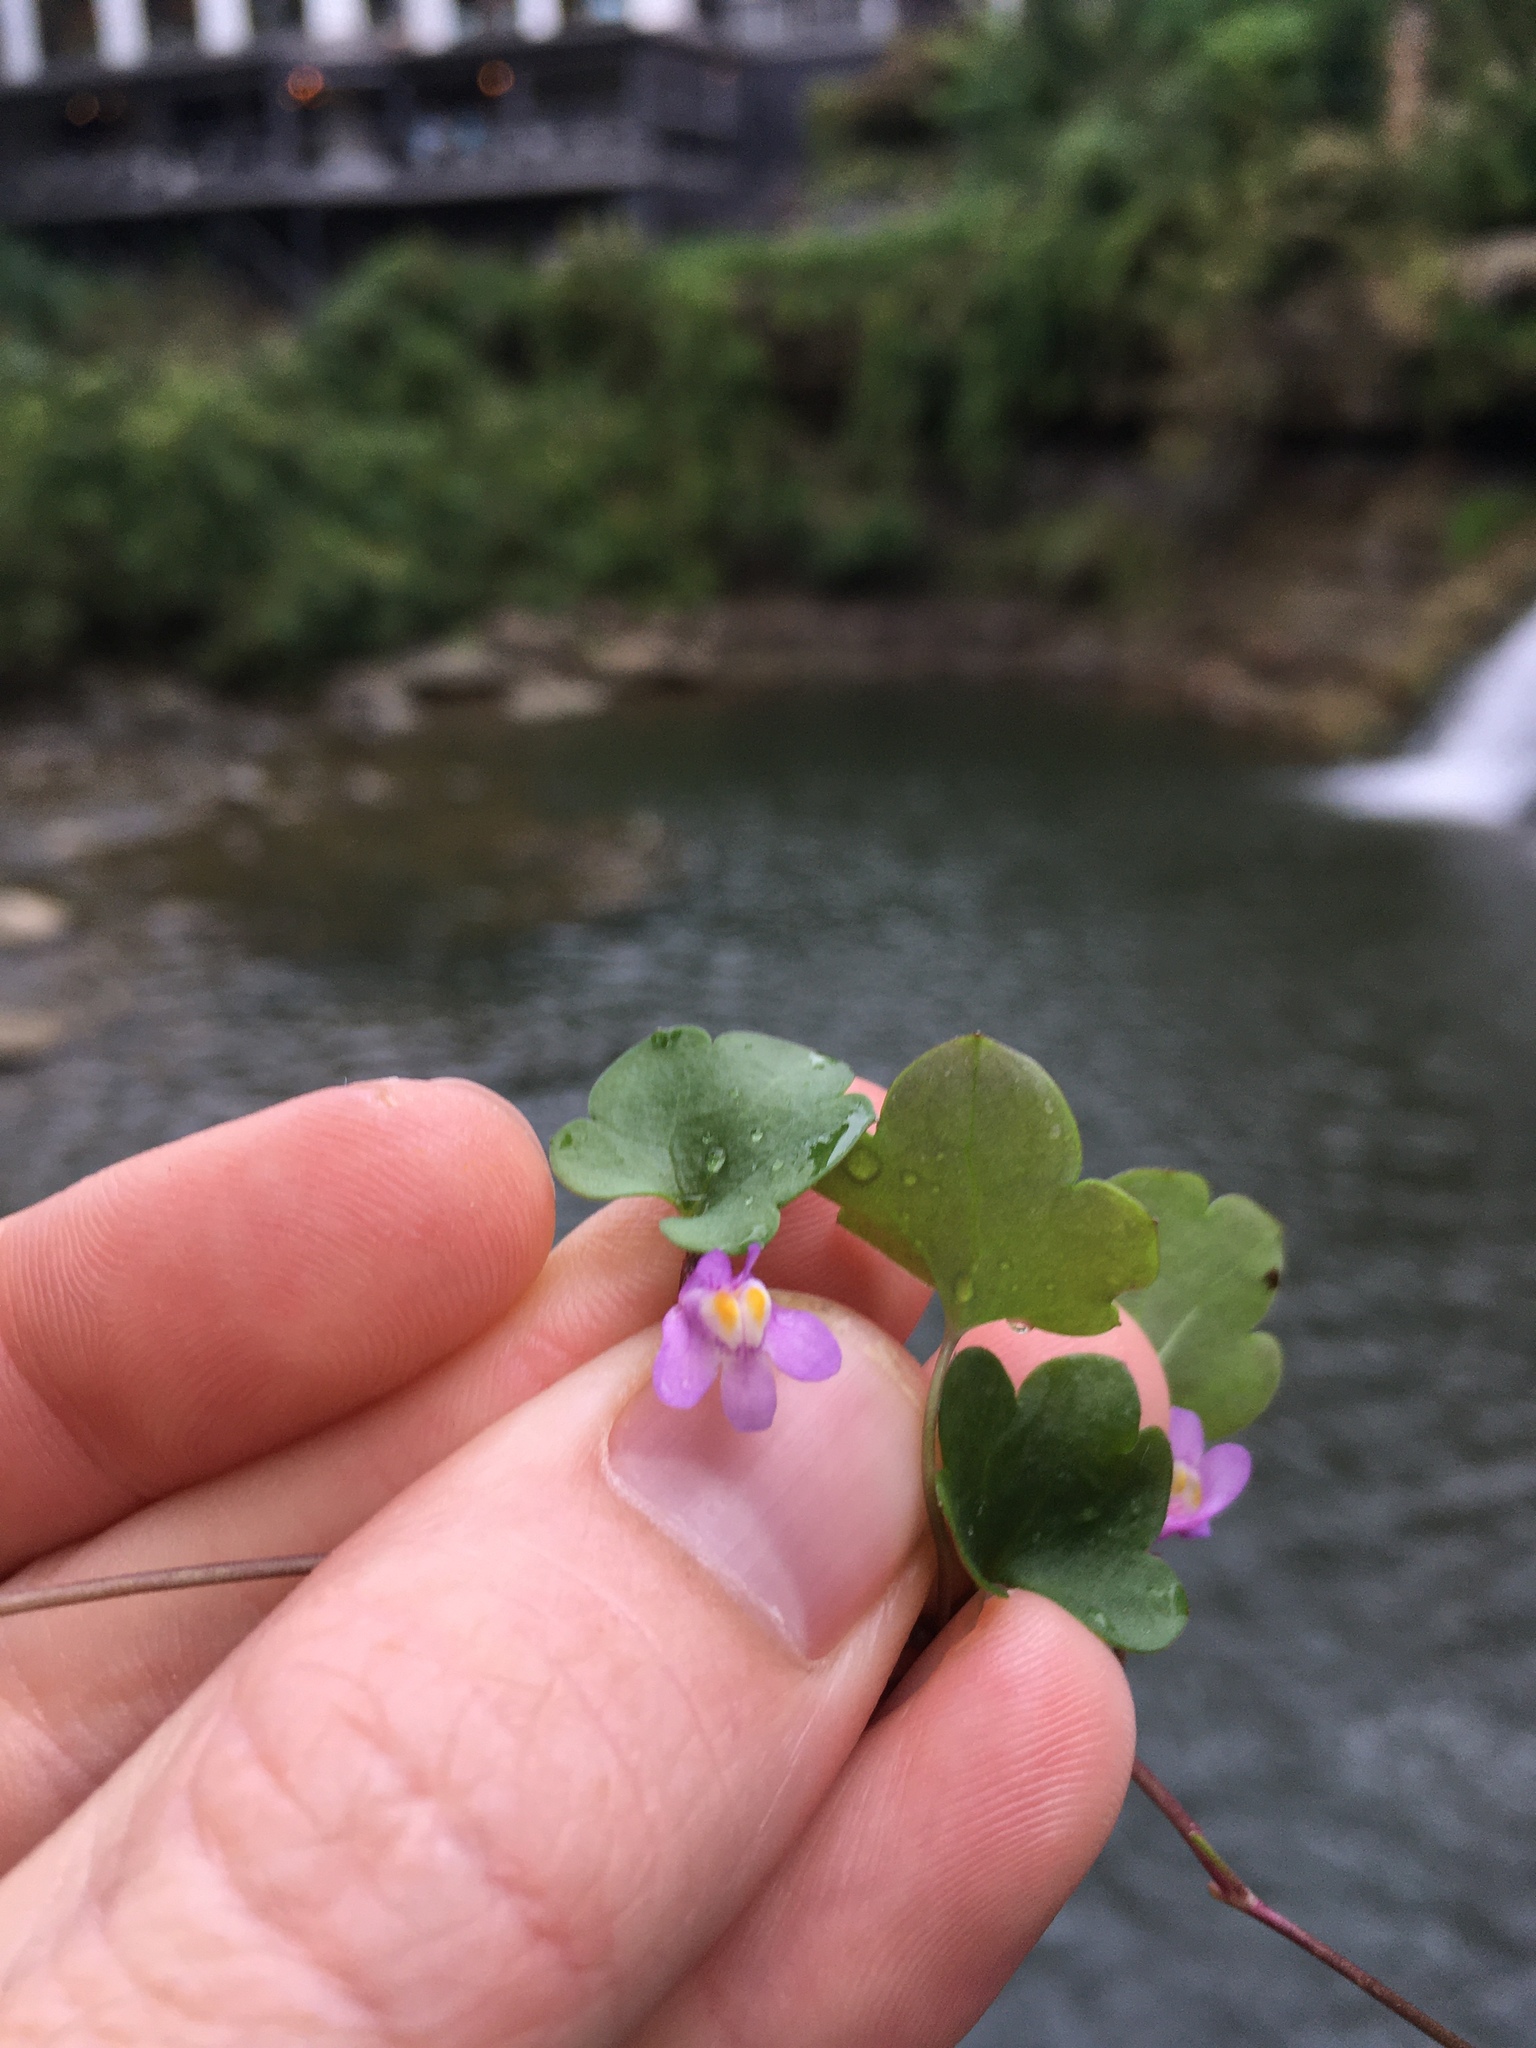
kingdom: Plantae
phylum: Tracheophyta
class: Magnoliopsida
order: Lamiales
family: Plantaginaceae
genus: Cymbalaria
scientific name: Cymbalaria muralis
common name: Ivy-leaved toadflax
